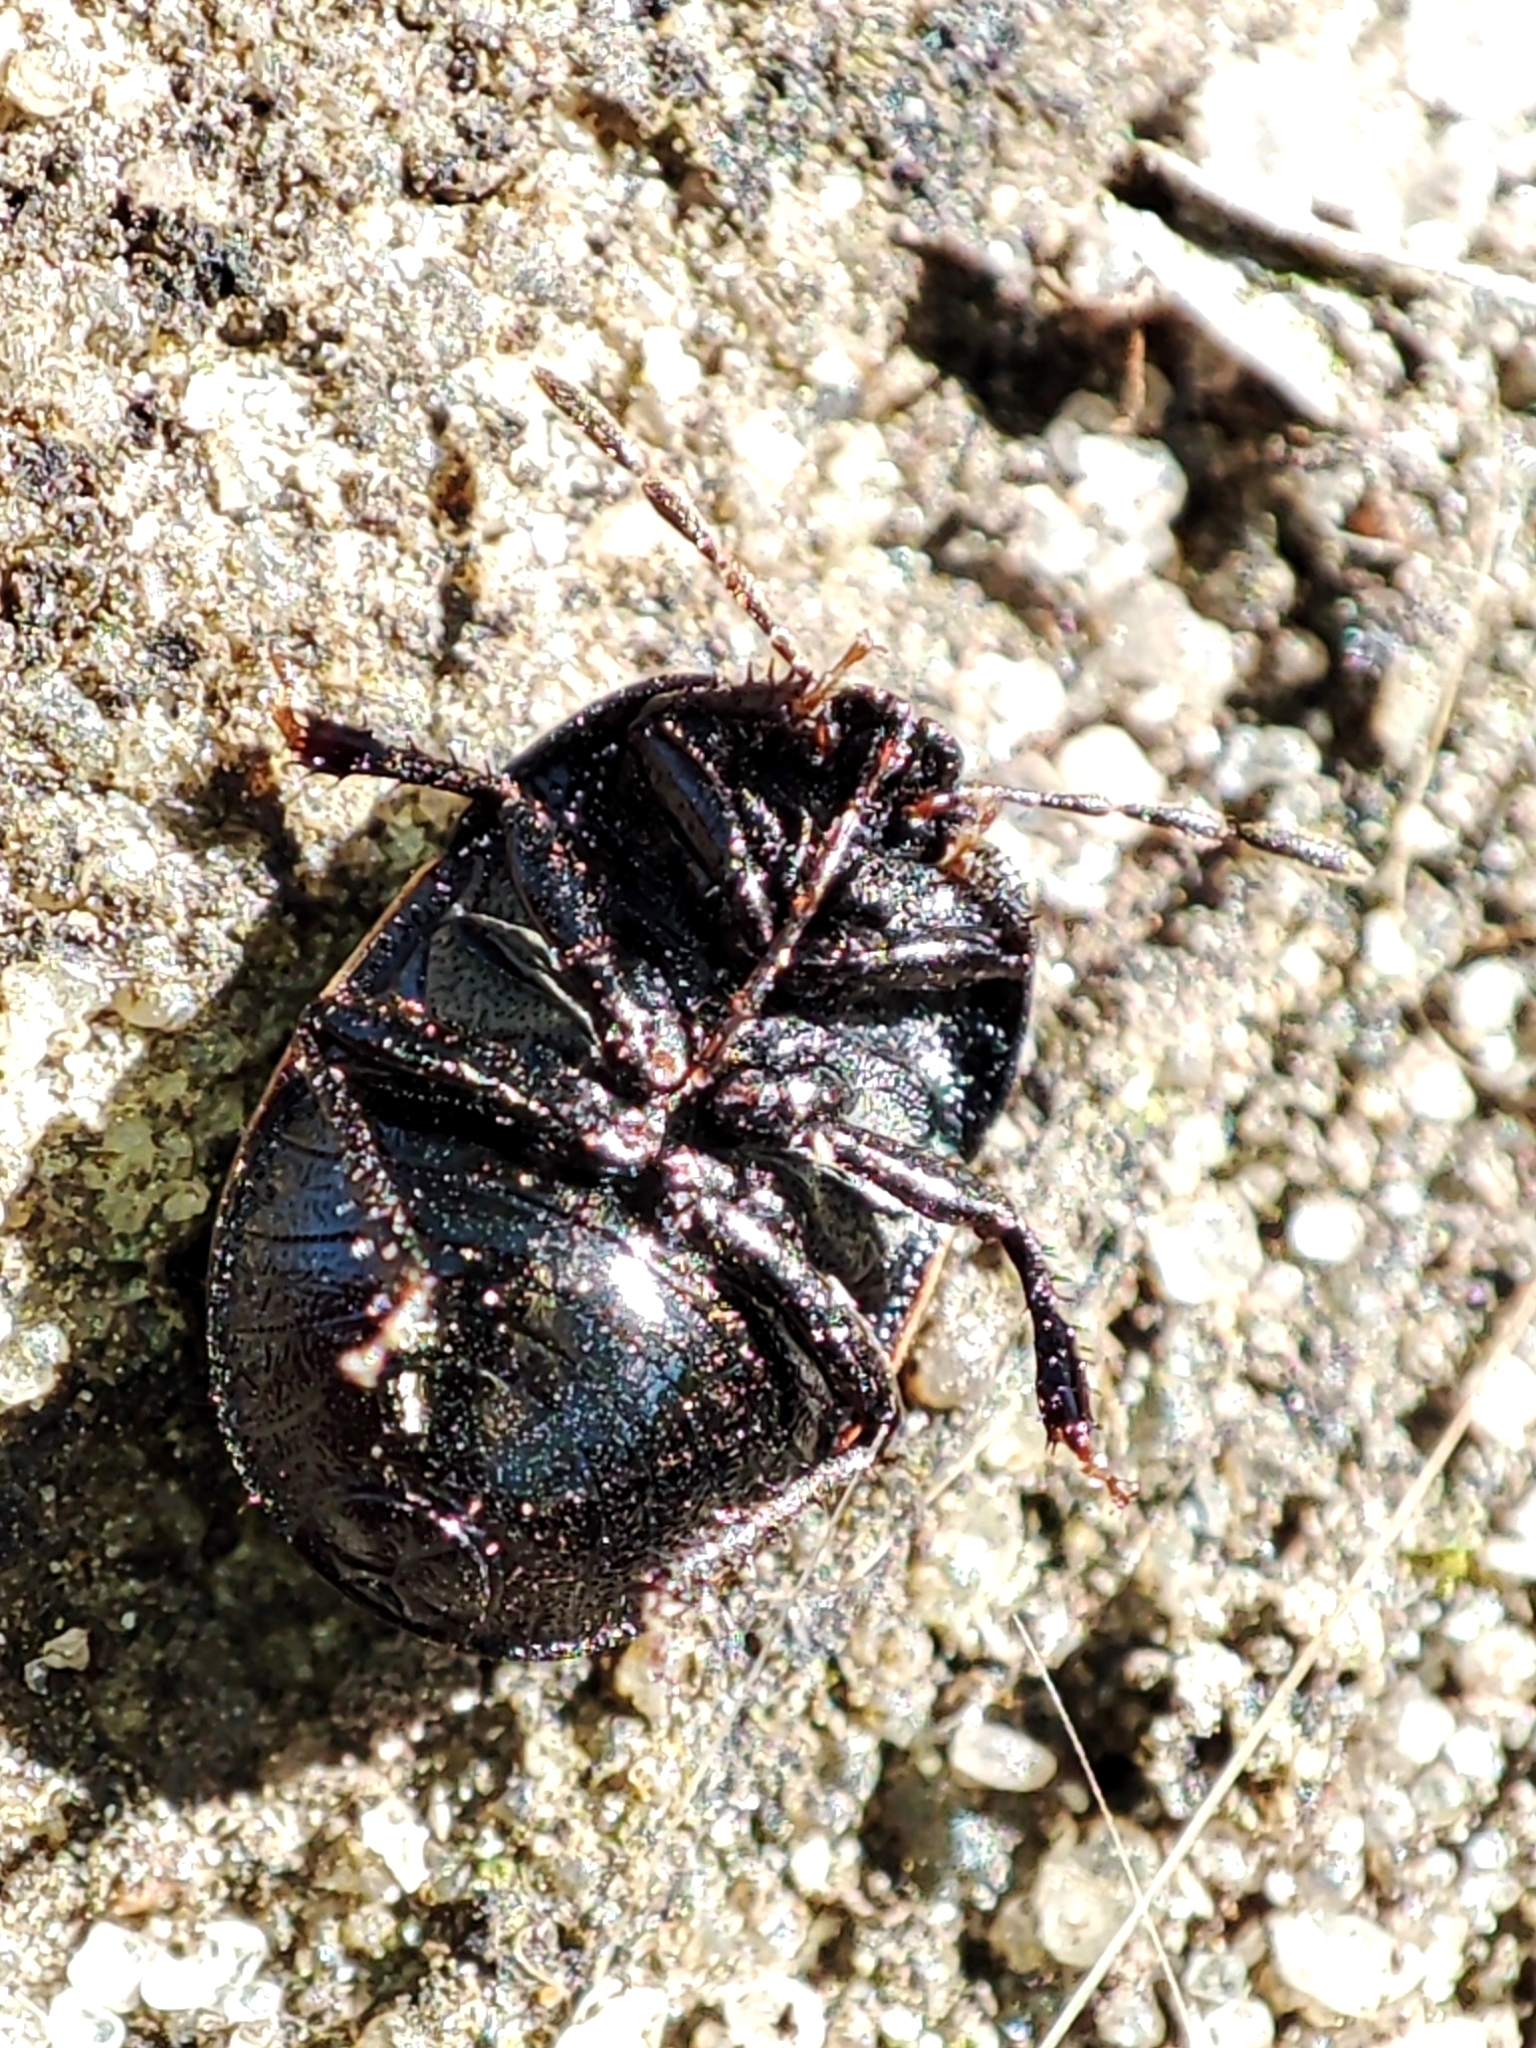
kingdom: Animalia
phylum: Arthropoda
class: Insecta
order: Hemiptera
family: Cydnidae
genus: Legnotus
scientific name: Legnotus limbosus
